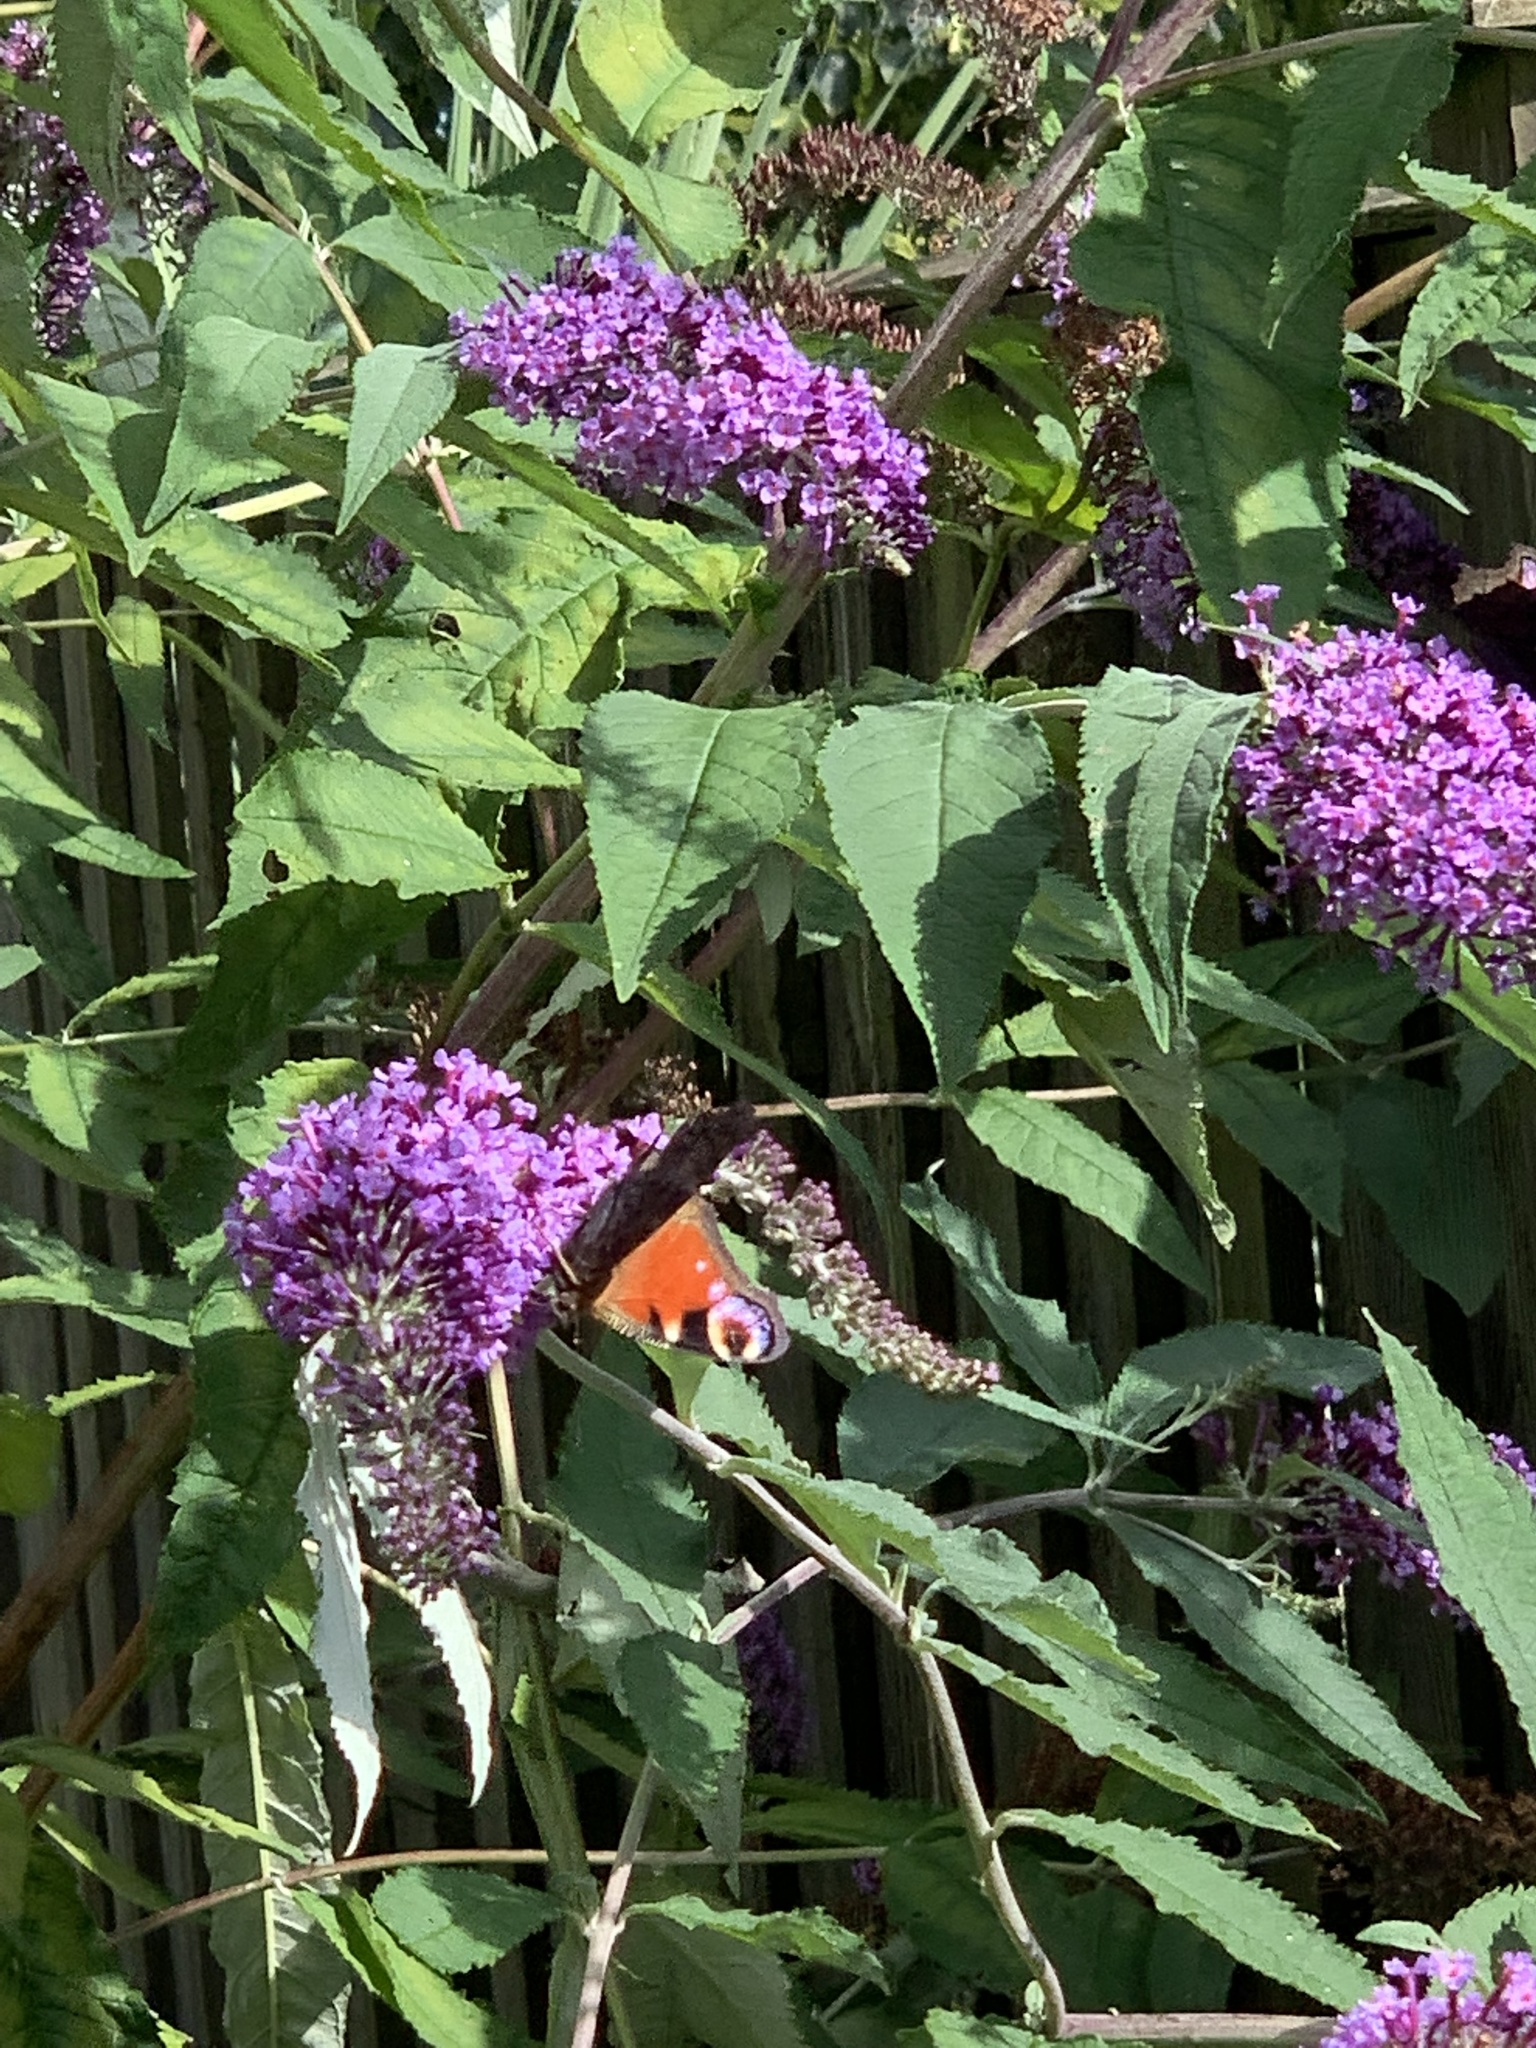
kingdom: Animalia
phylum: Arthropoda
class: Insecta
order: Lepidoptera
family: Nymphalidae
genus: Aglais
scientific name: Aglais io
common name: Peacock
